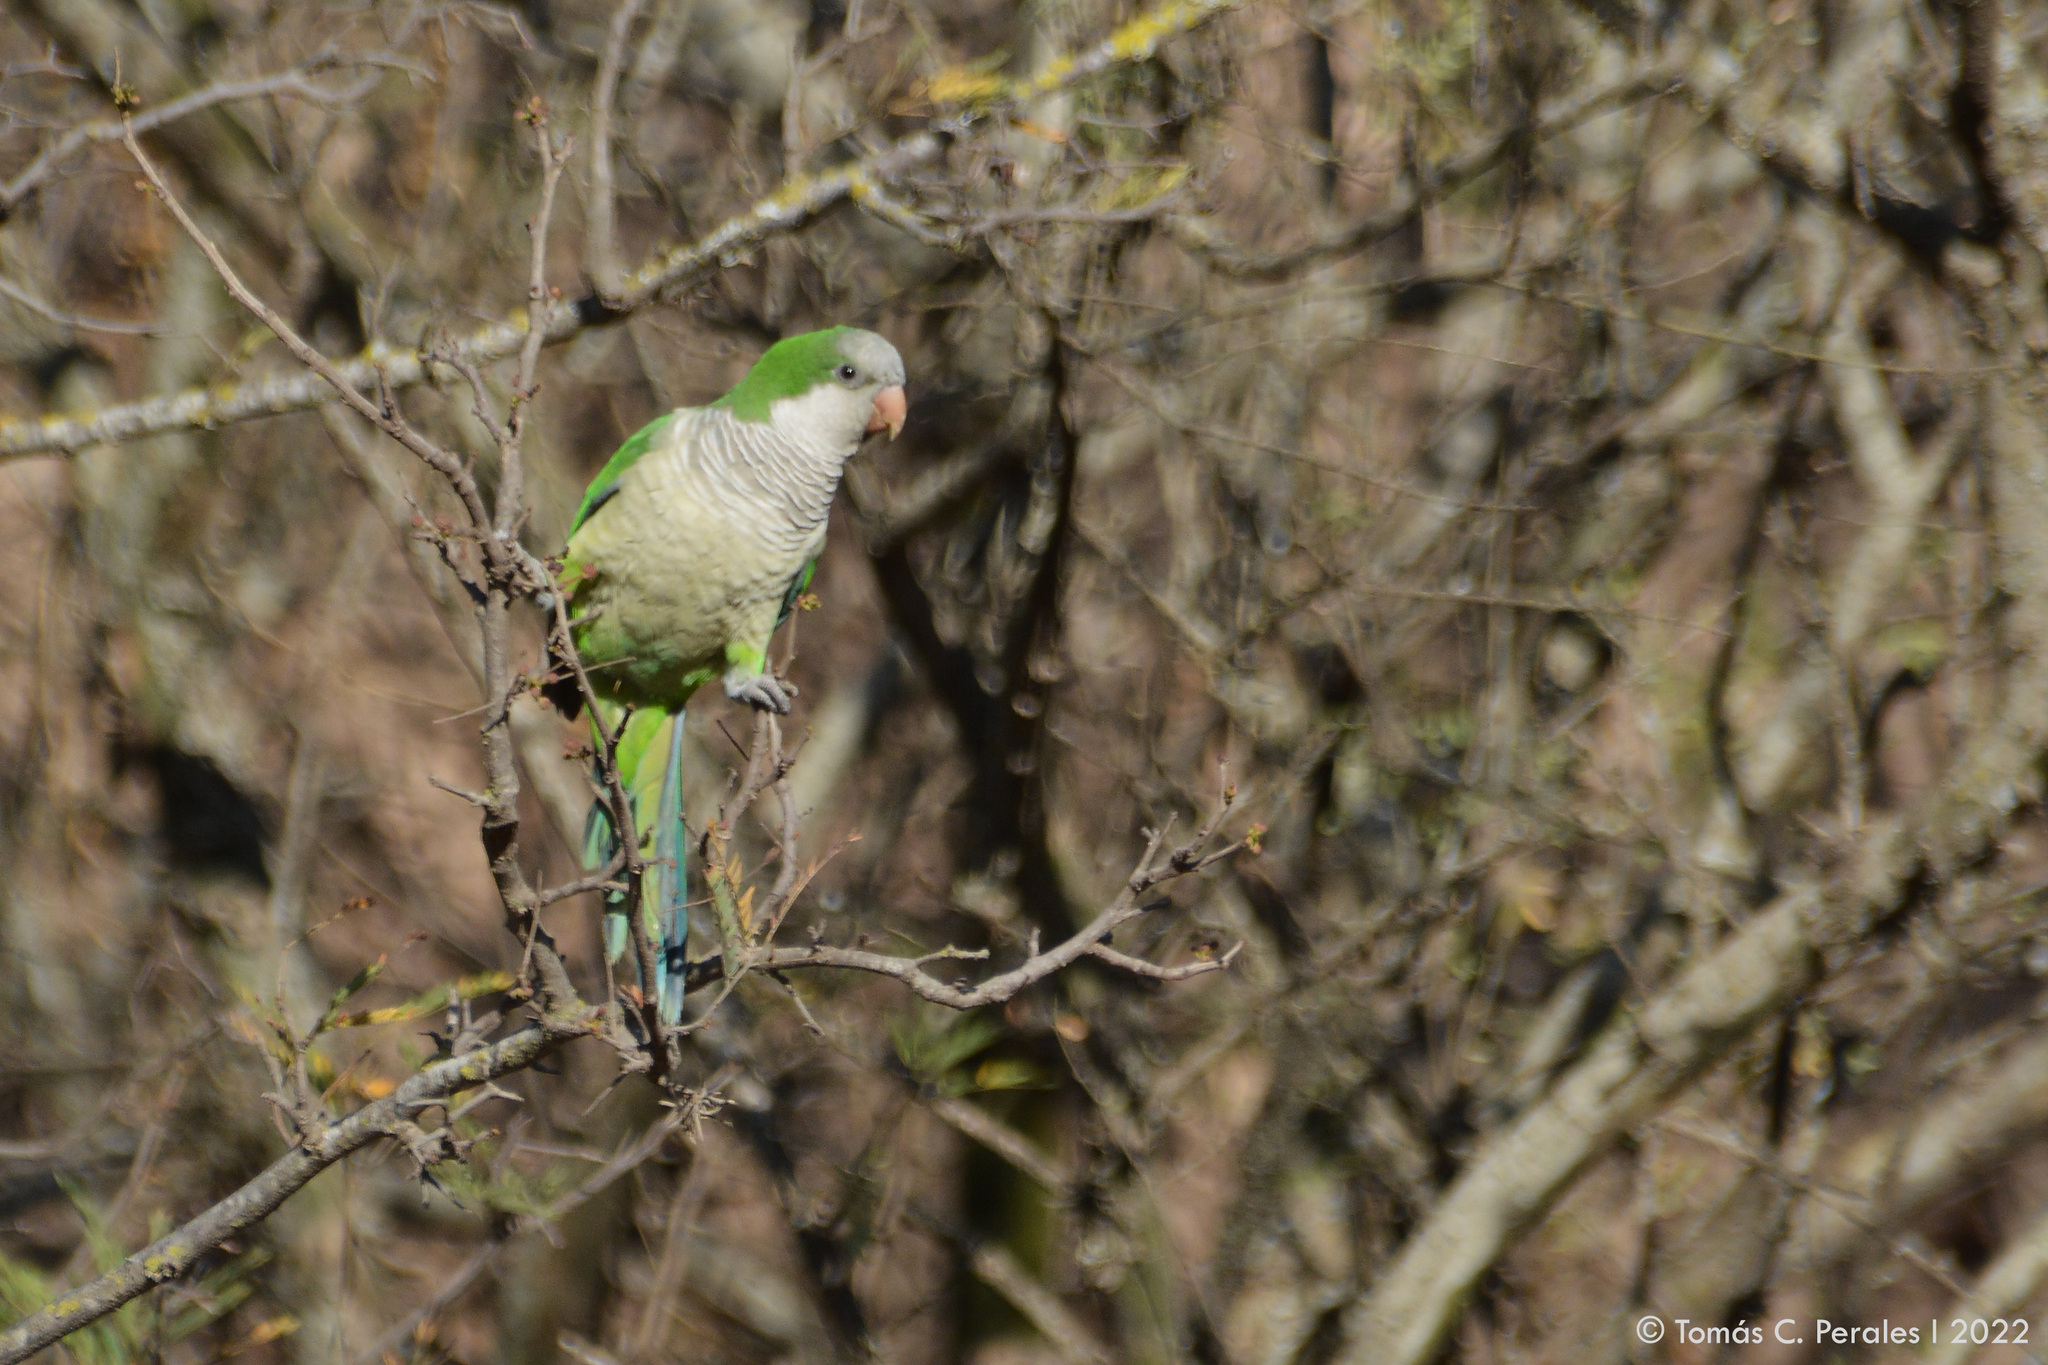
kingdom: Animalia
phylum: Chordata
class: Aves
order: Psittaciformes
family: Psittacidae
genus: Myiopsitta
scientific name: Myiopsitta monachus
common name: Monk parakeet
